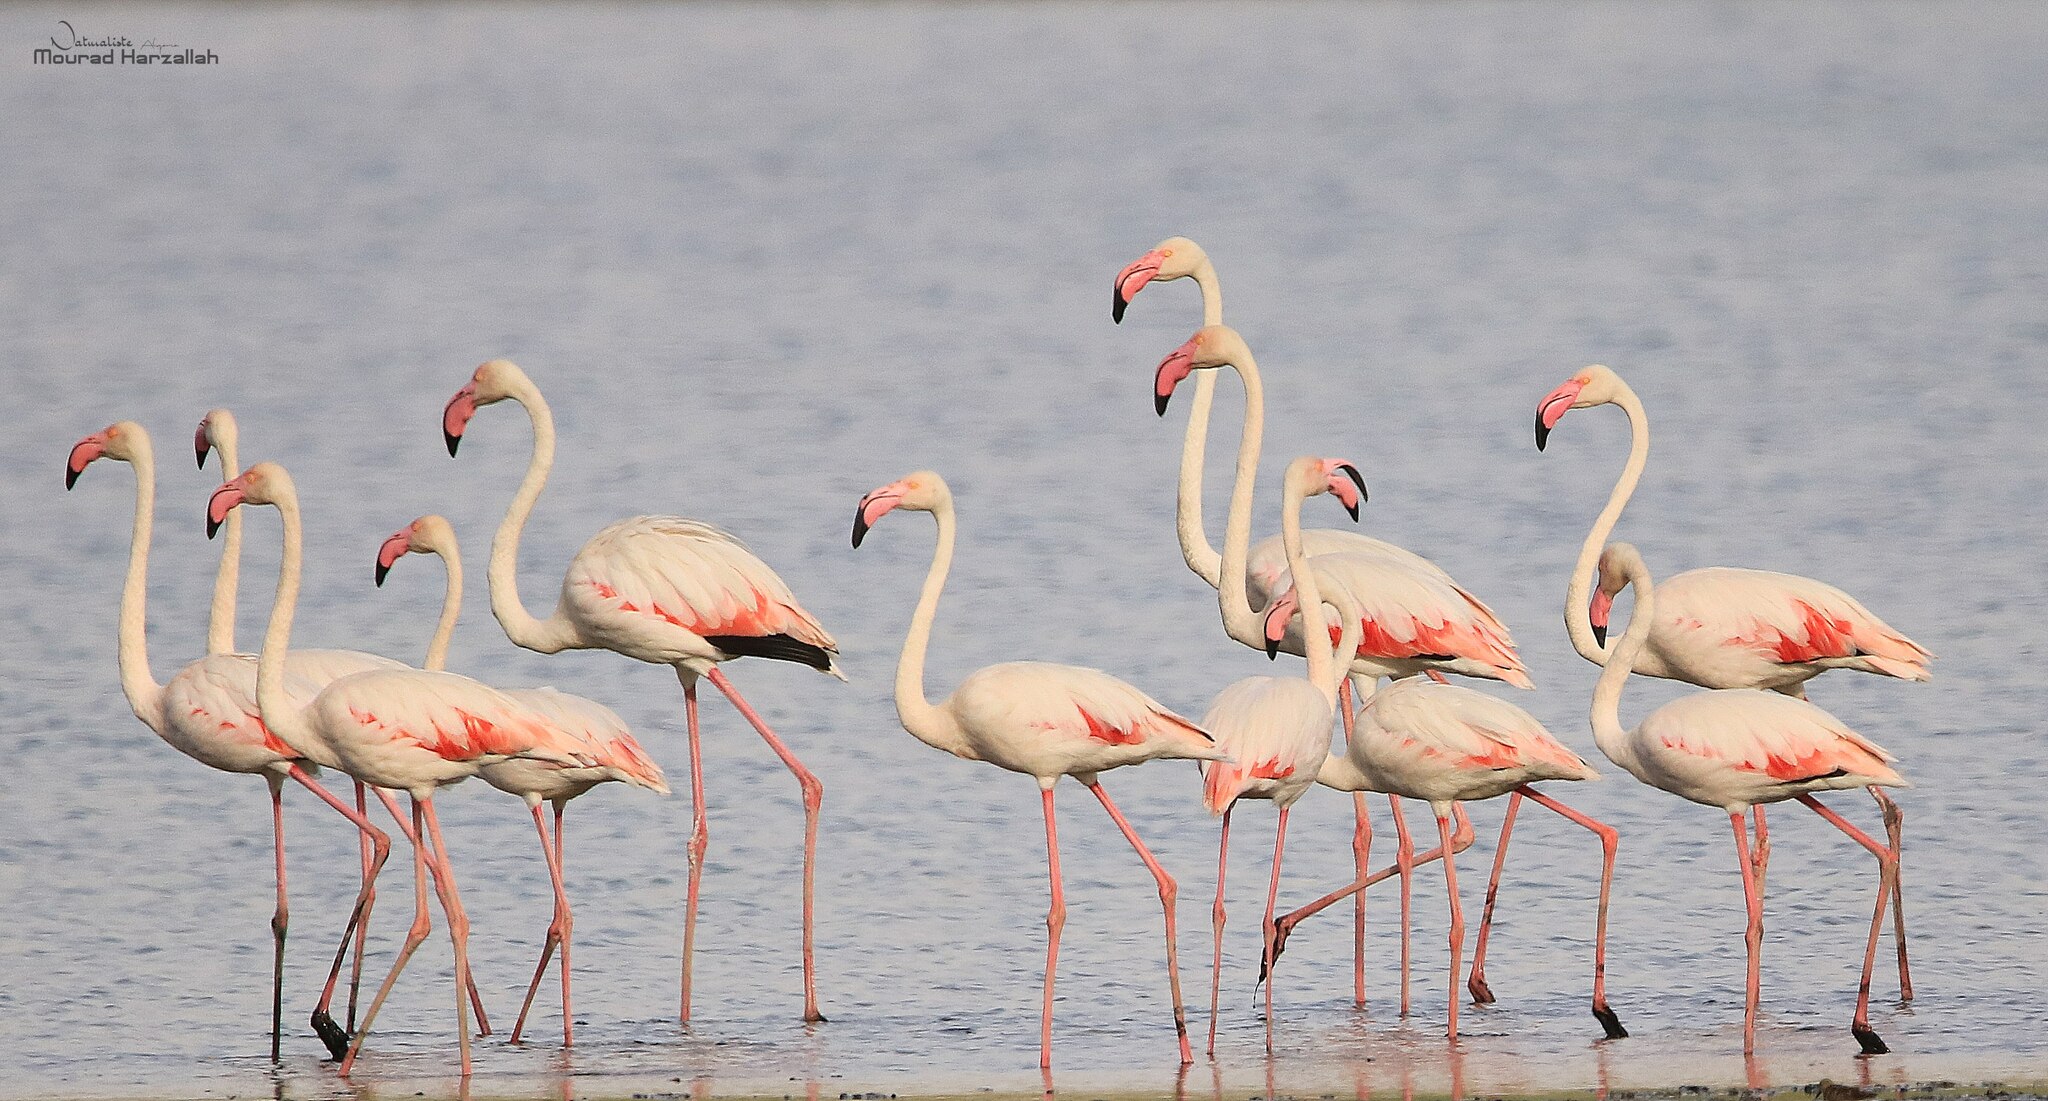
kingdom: Animalia
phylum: Chordata
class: Aves
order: Phoenicopteriformes
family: Phoenicopteridae
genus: Phoenicopterus
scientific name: Phoenicopterus roseus
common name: Greater flamingo
